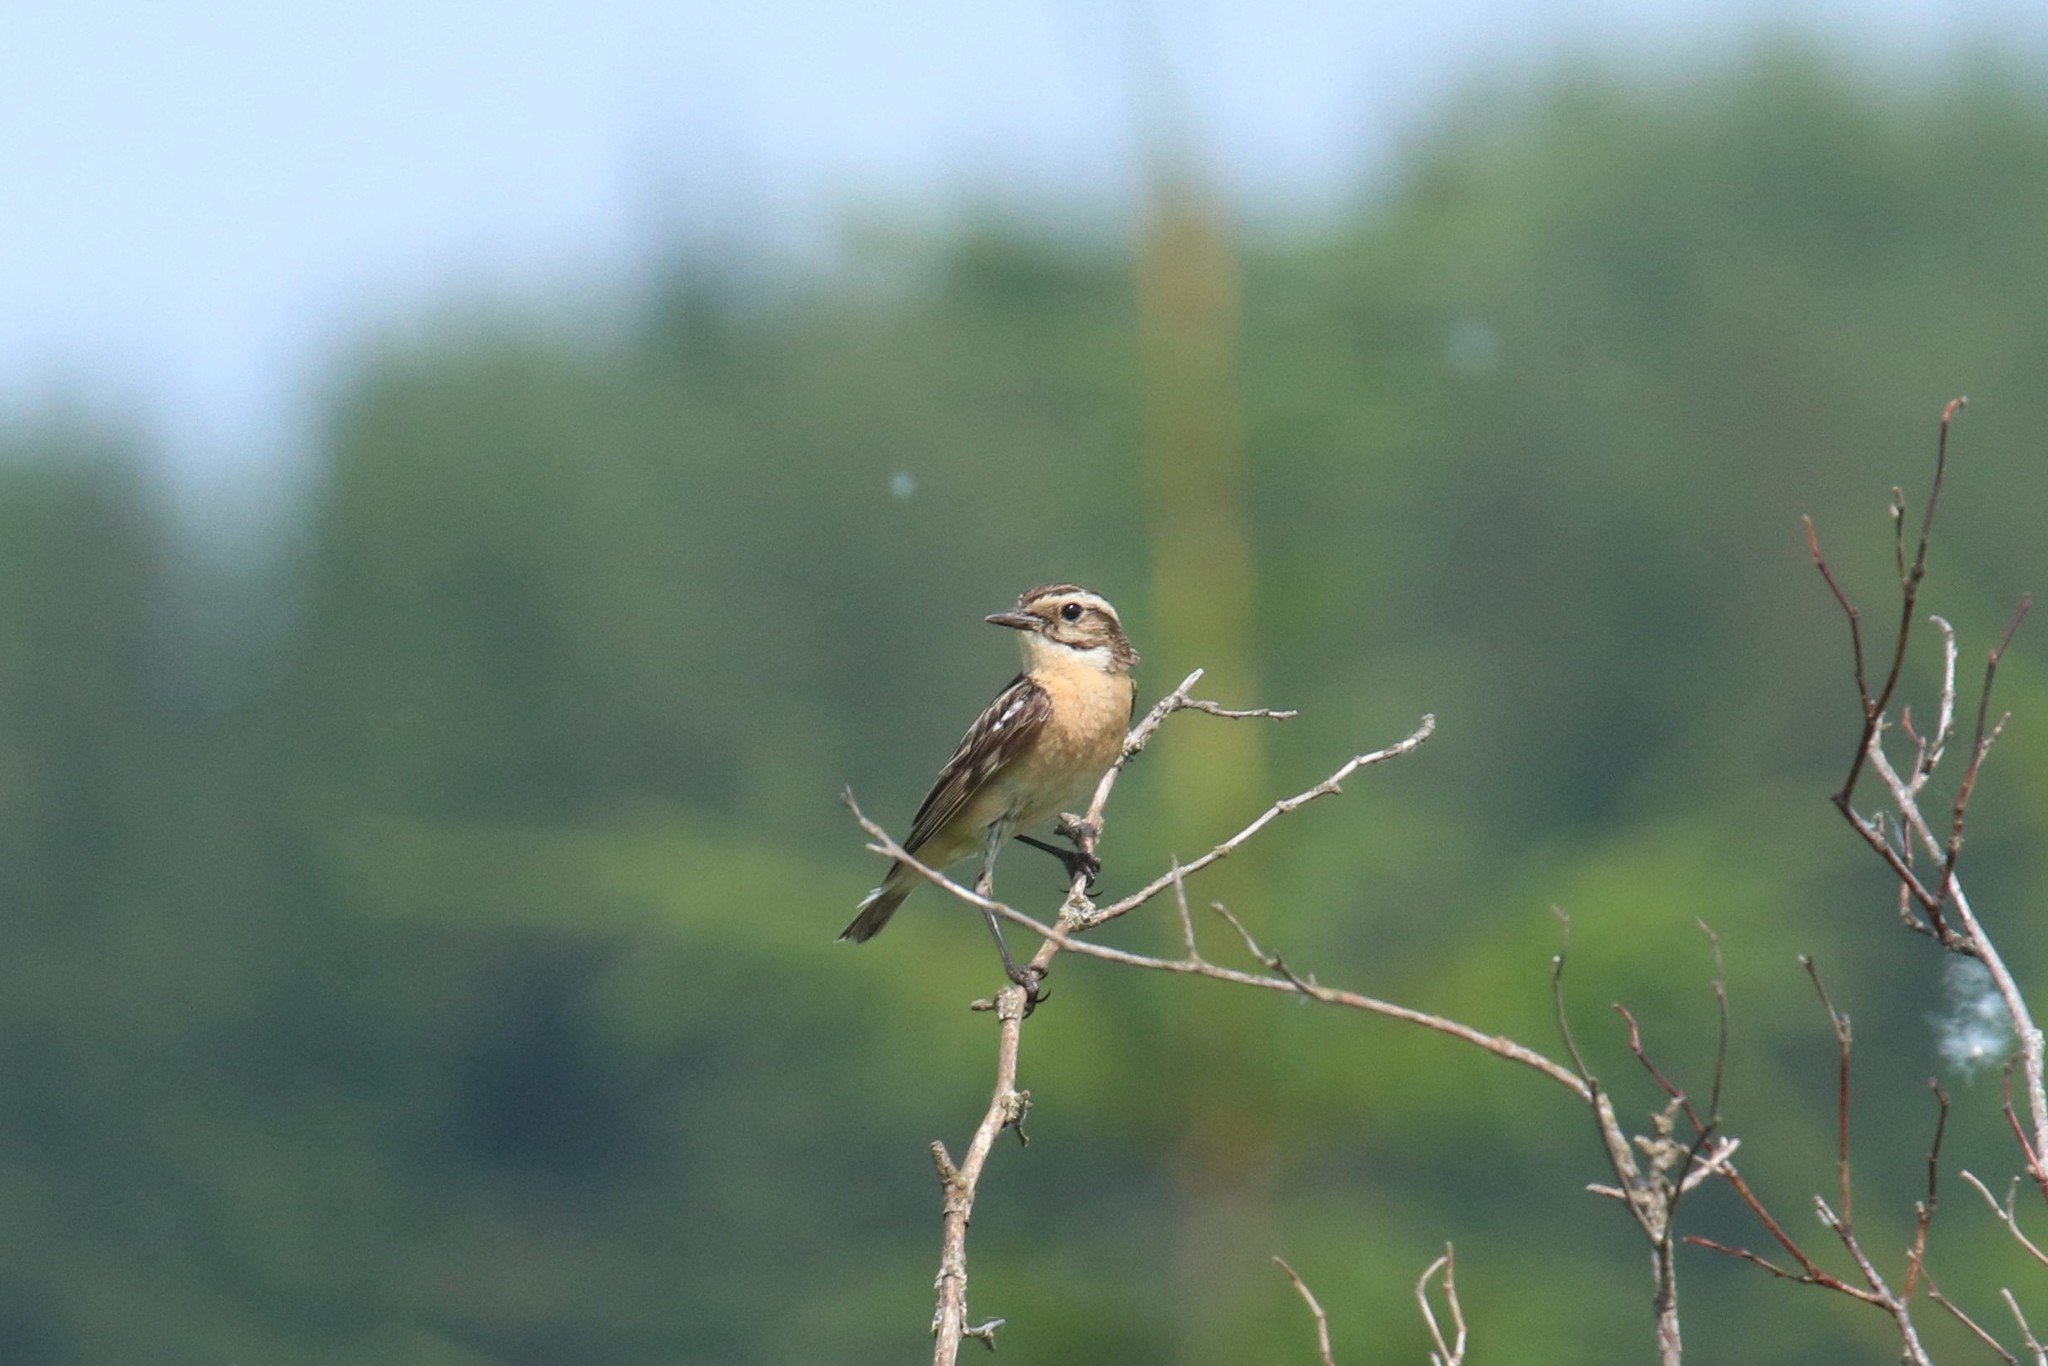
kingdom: Animalia
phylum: Chordata
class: Aves
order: Passeriformes
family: Muscicapidae
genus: Saxicola
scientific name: Saxicola rubetra
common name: Whinchat
